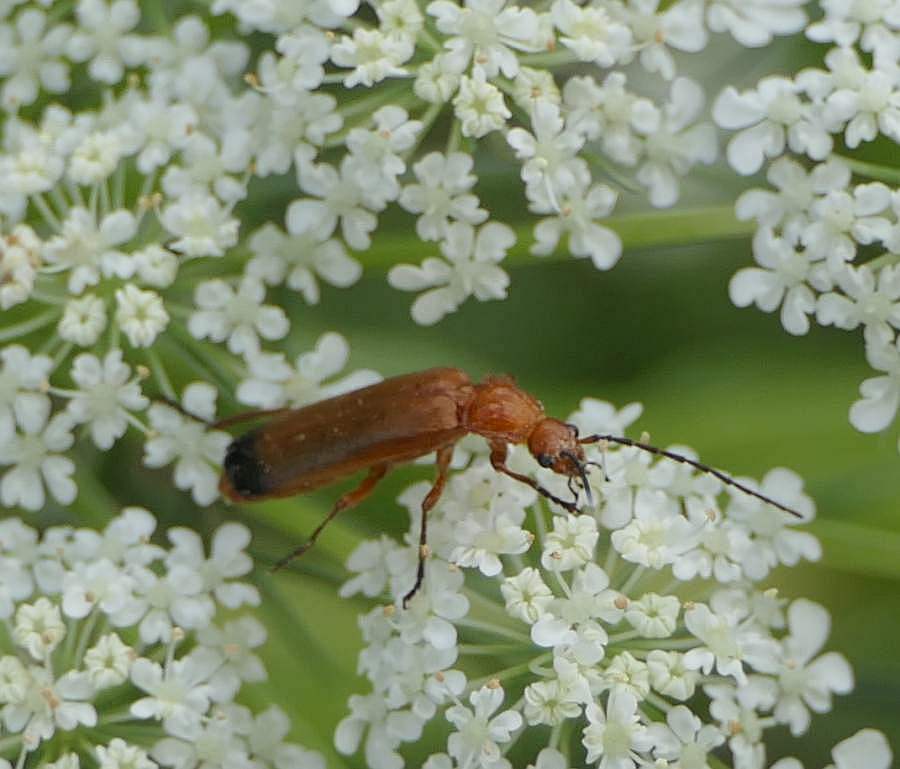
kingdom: Animalia
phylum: Arthropoda
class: Insecta
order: Coleoptera
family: Cantharidae
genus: Rhagonycha
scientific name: Rhagonycha fulva
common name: Common red soldier beetle
